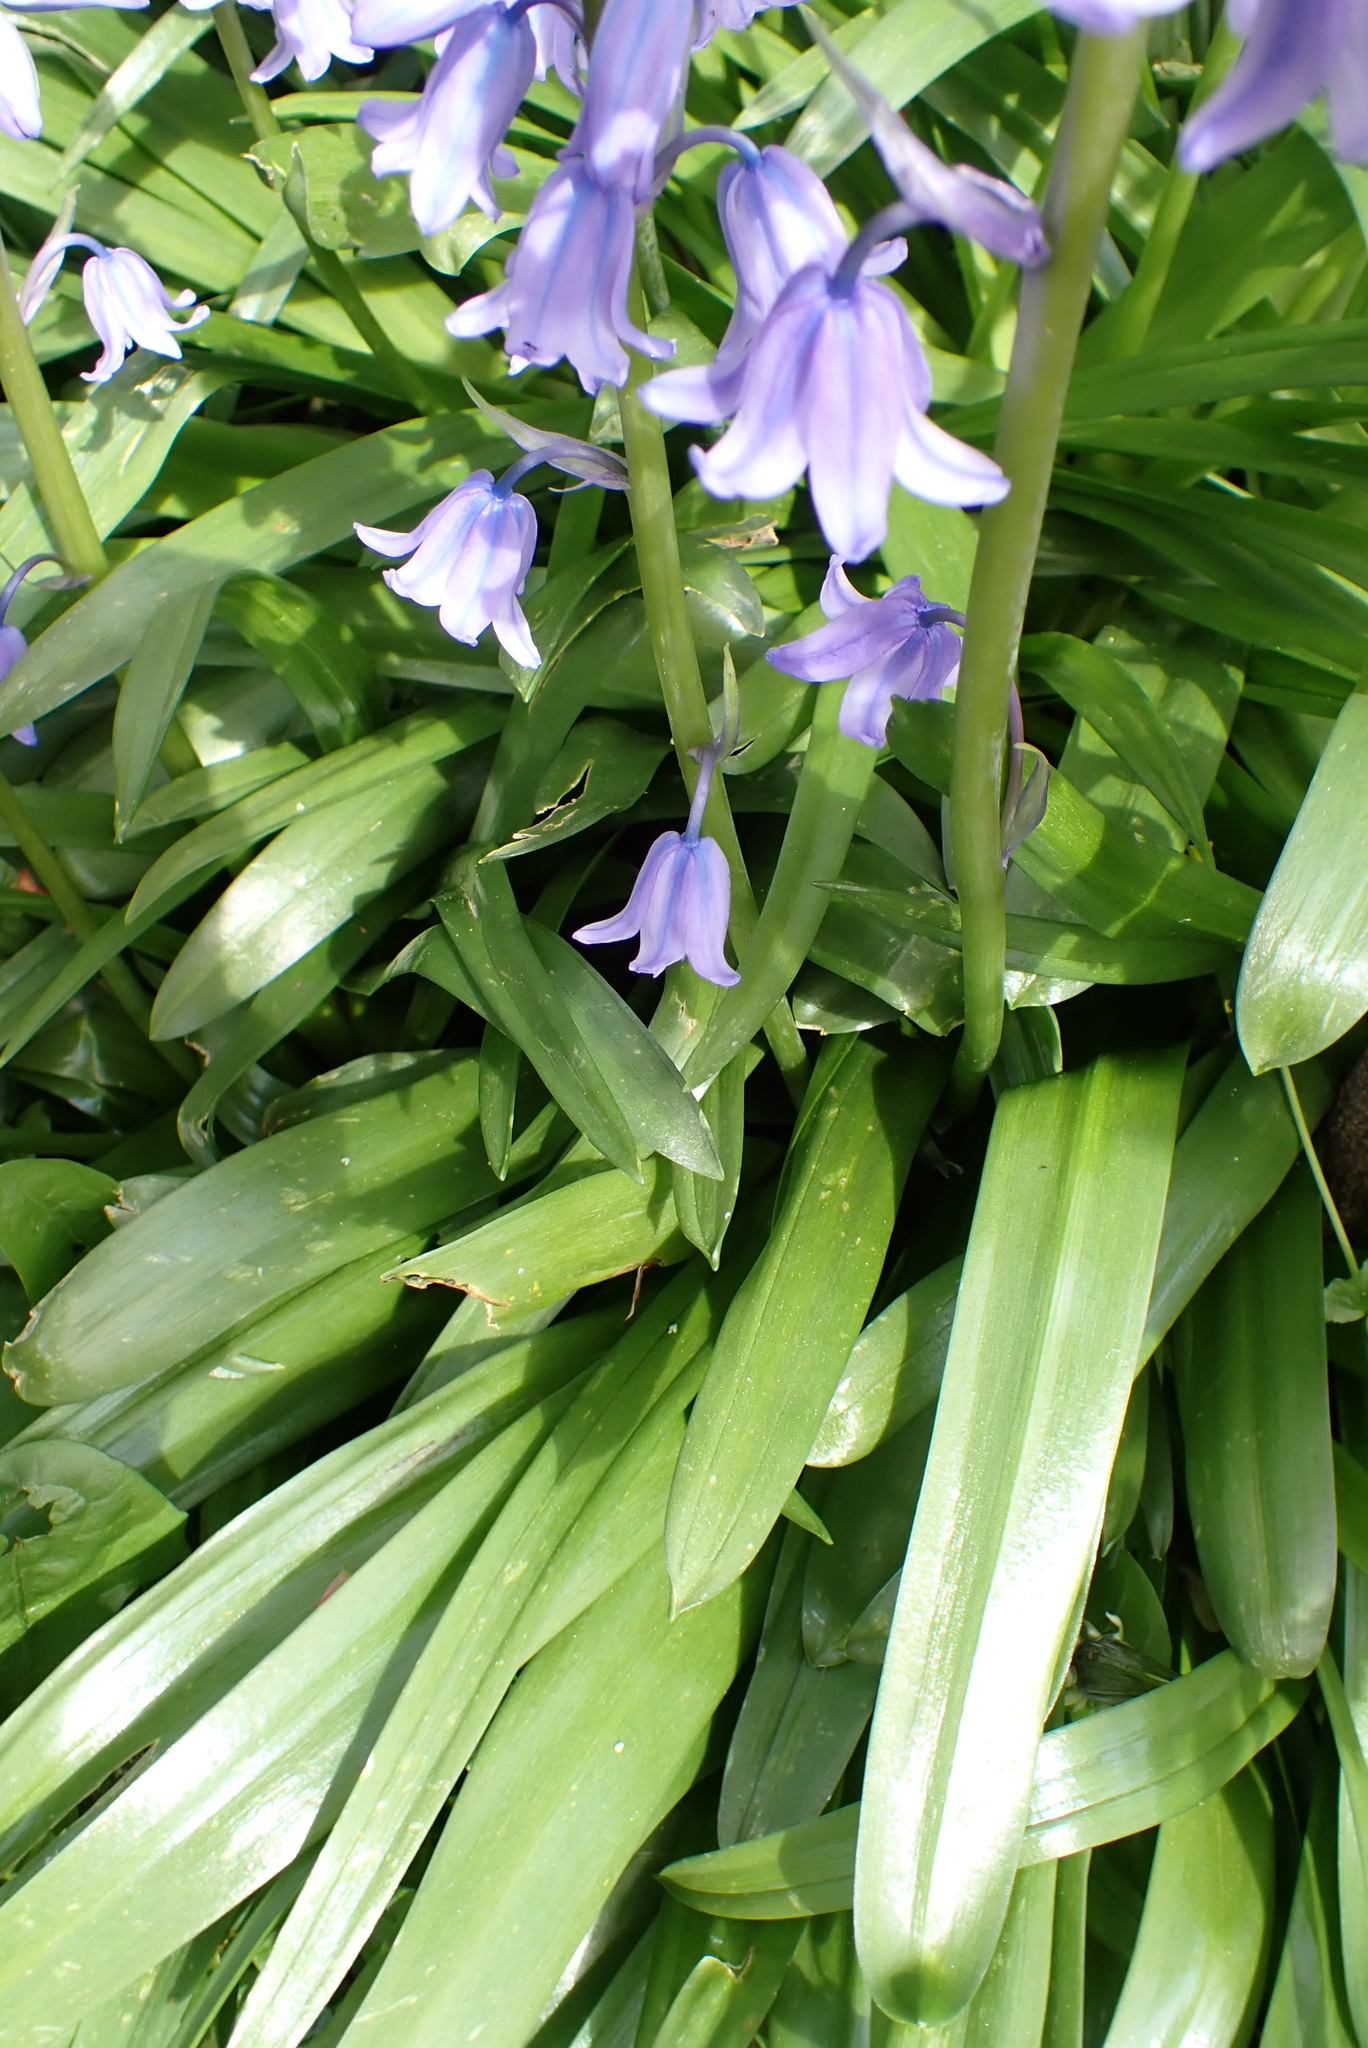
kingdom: Plantae
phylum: Tracheophyta
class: Liliopsida
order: Asparagales
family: Asparagaceae
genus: Hyacinthoides
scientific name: Hyacinthoides hispanica
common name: Spanish bluebell
